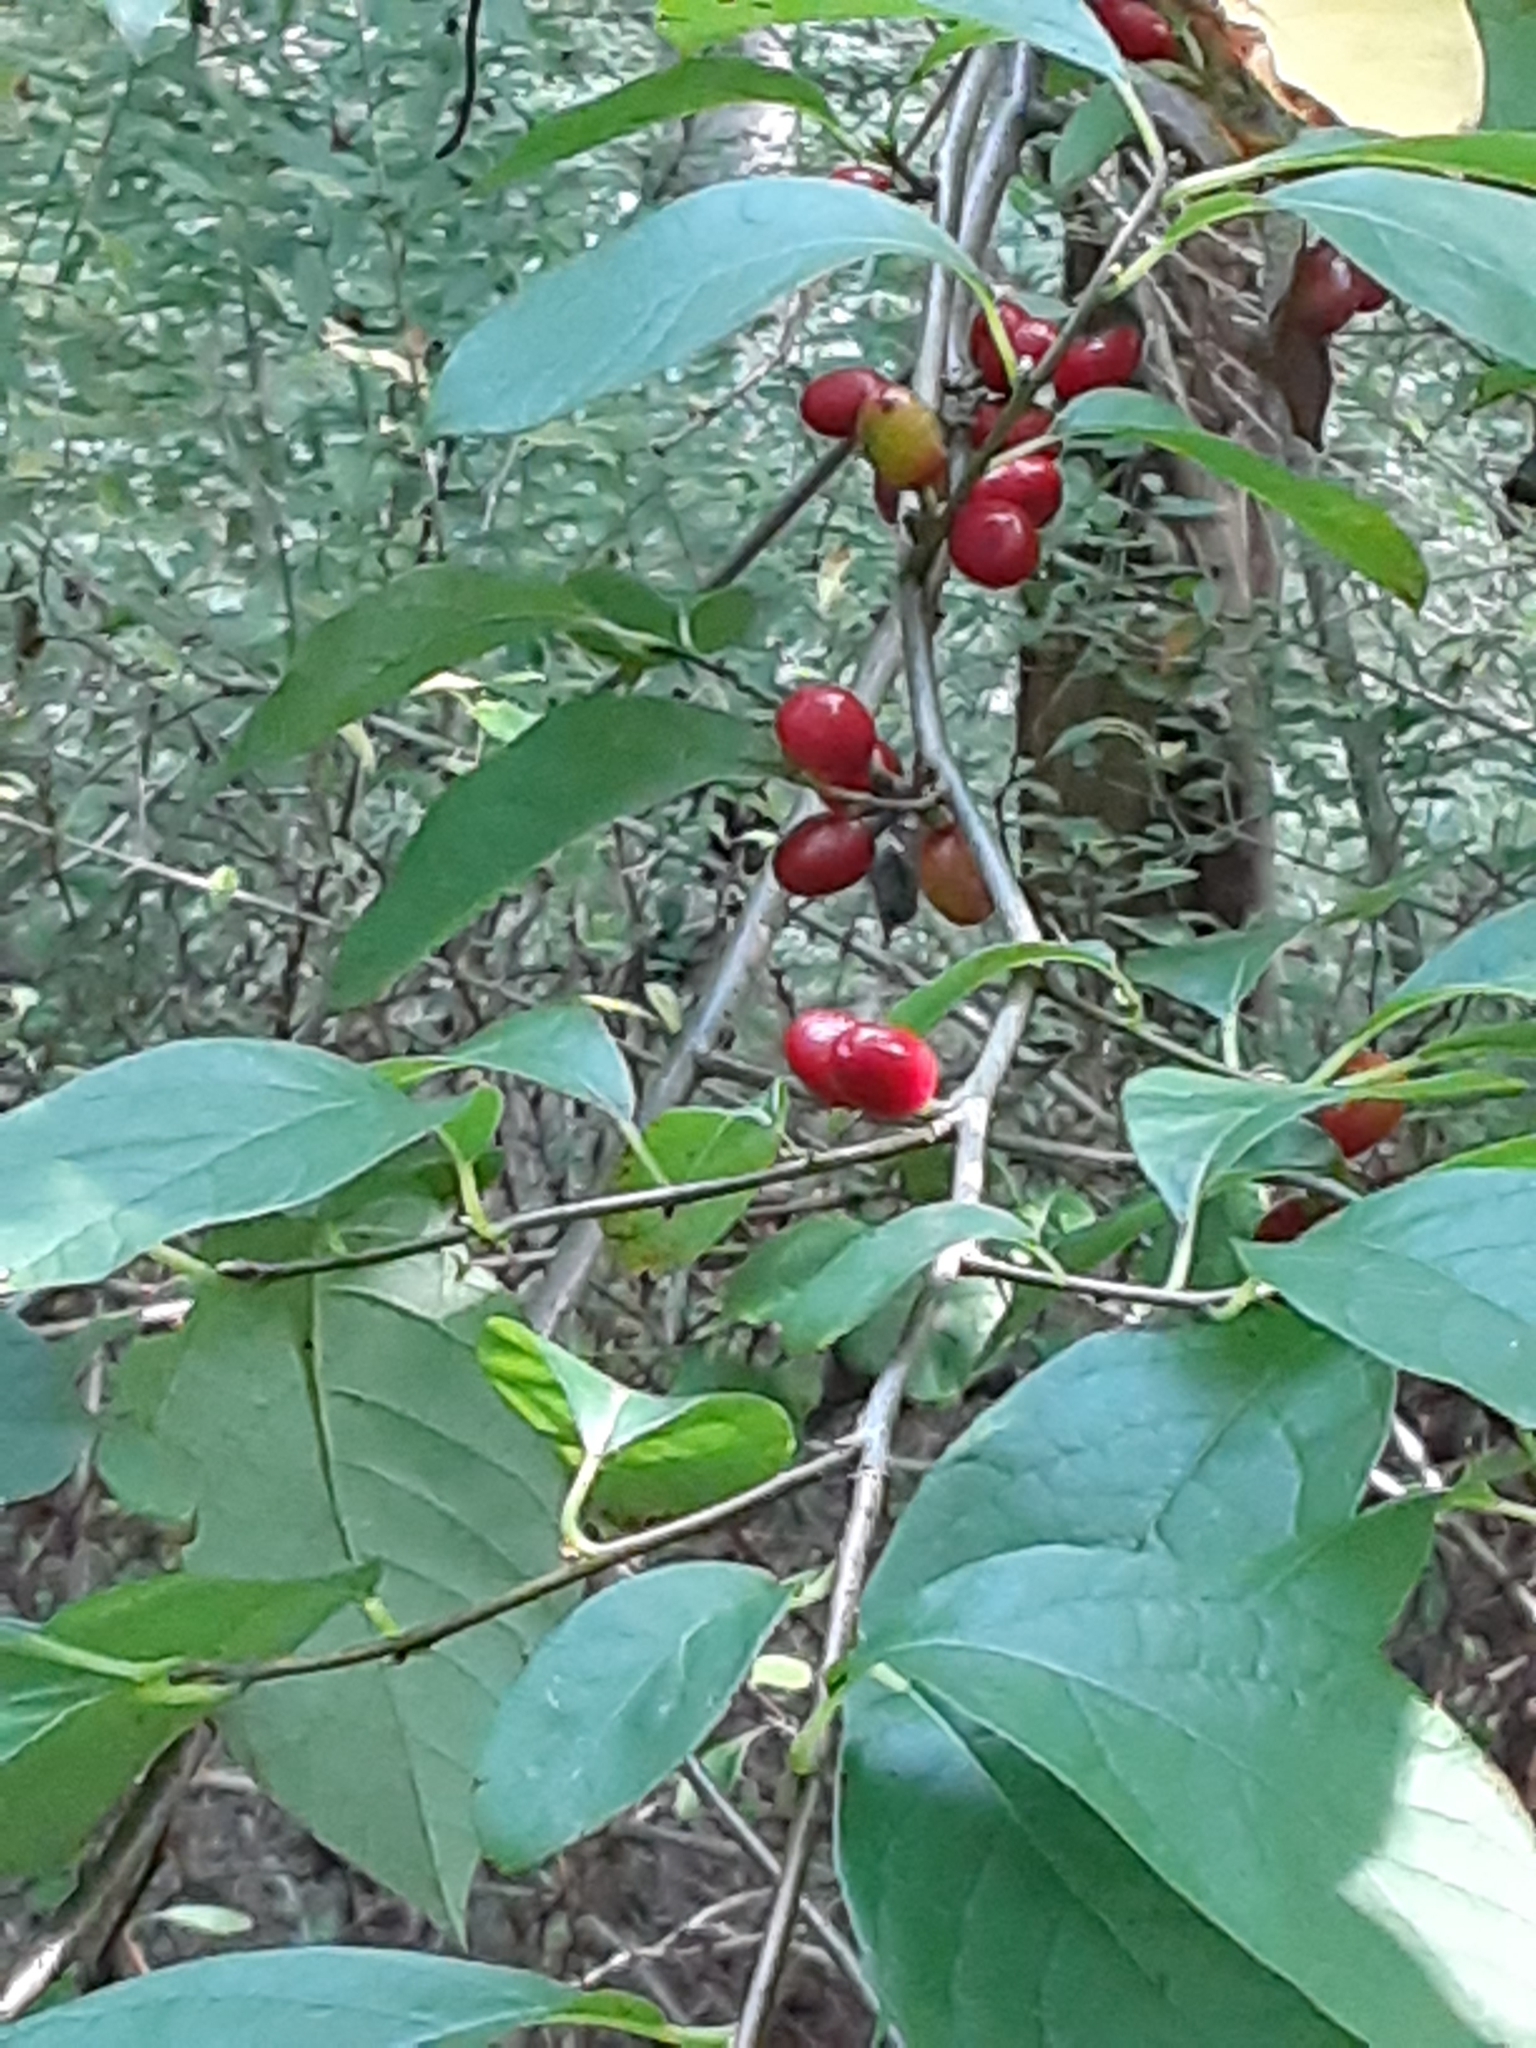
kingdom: Plantae
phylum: Tracheophyta
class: Magnoliopsida
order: Laurales
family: Lauraceae
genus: Lindera
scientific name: Lindera benzoin
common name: Spicebush
